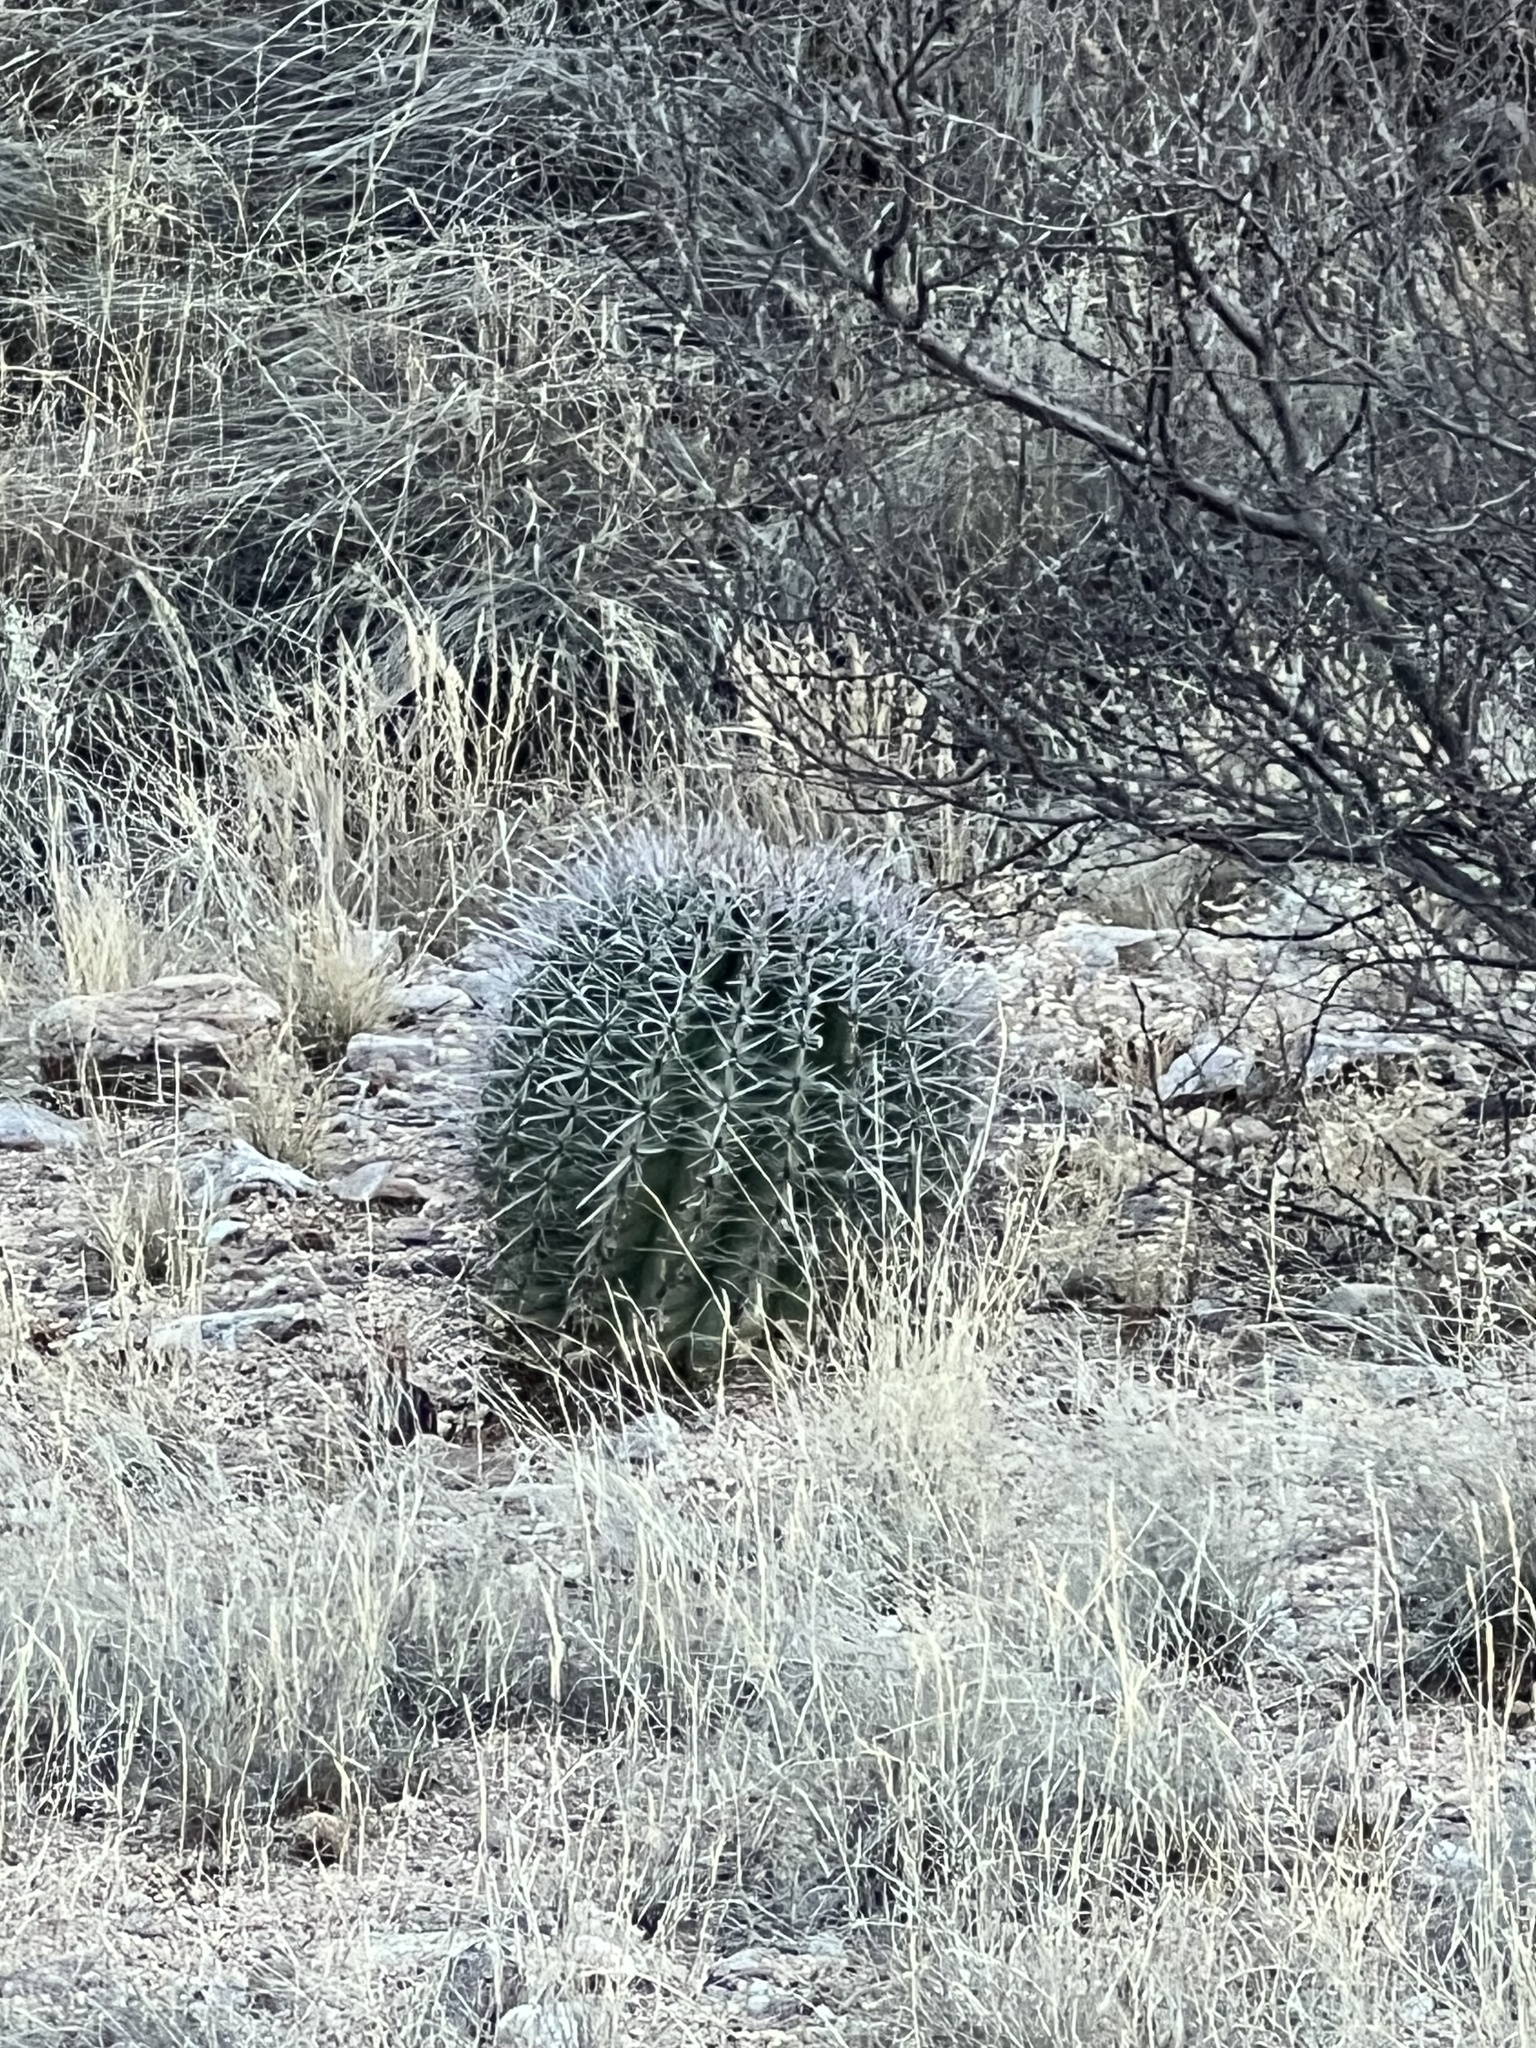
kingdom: Plantae
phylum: Tracheophyta
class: Magnoliopsida
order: Caryophyllales
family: Cactaceae
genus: Ferocactus
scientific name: Ferocactus wislizeni
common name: Candy barrel cactus
